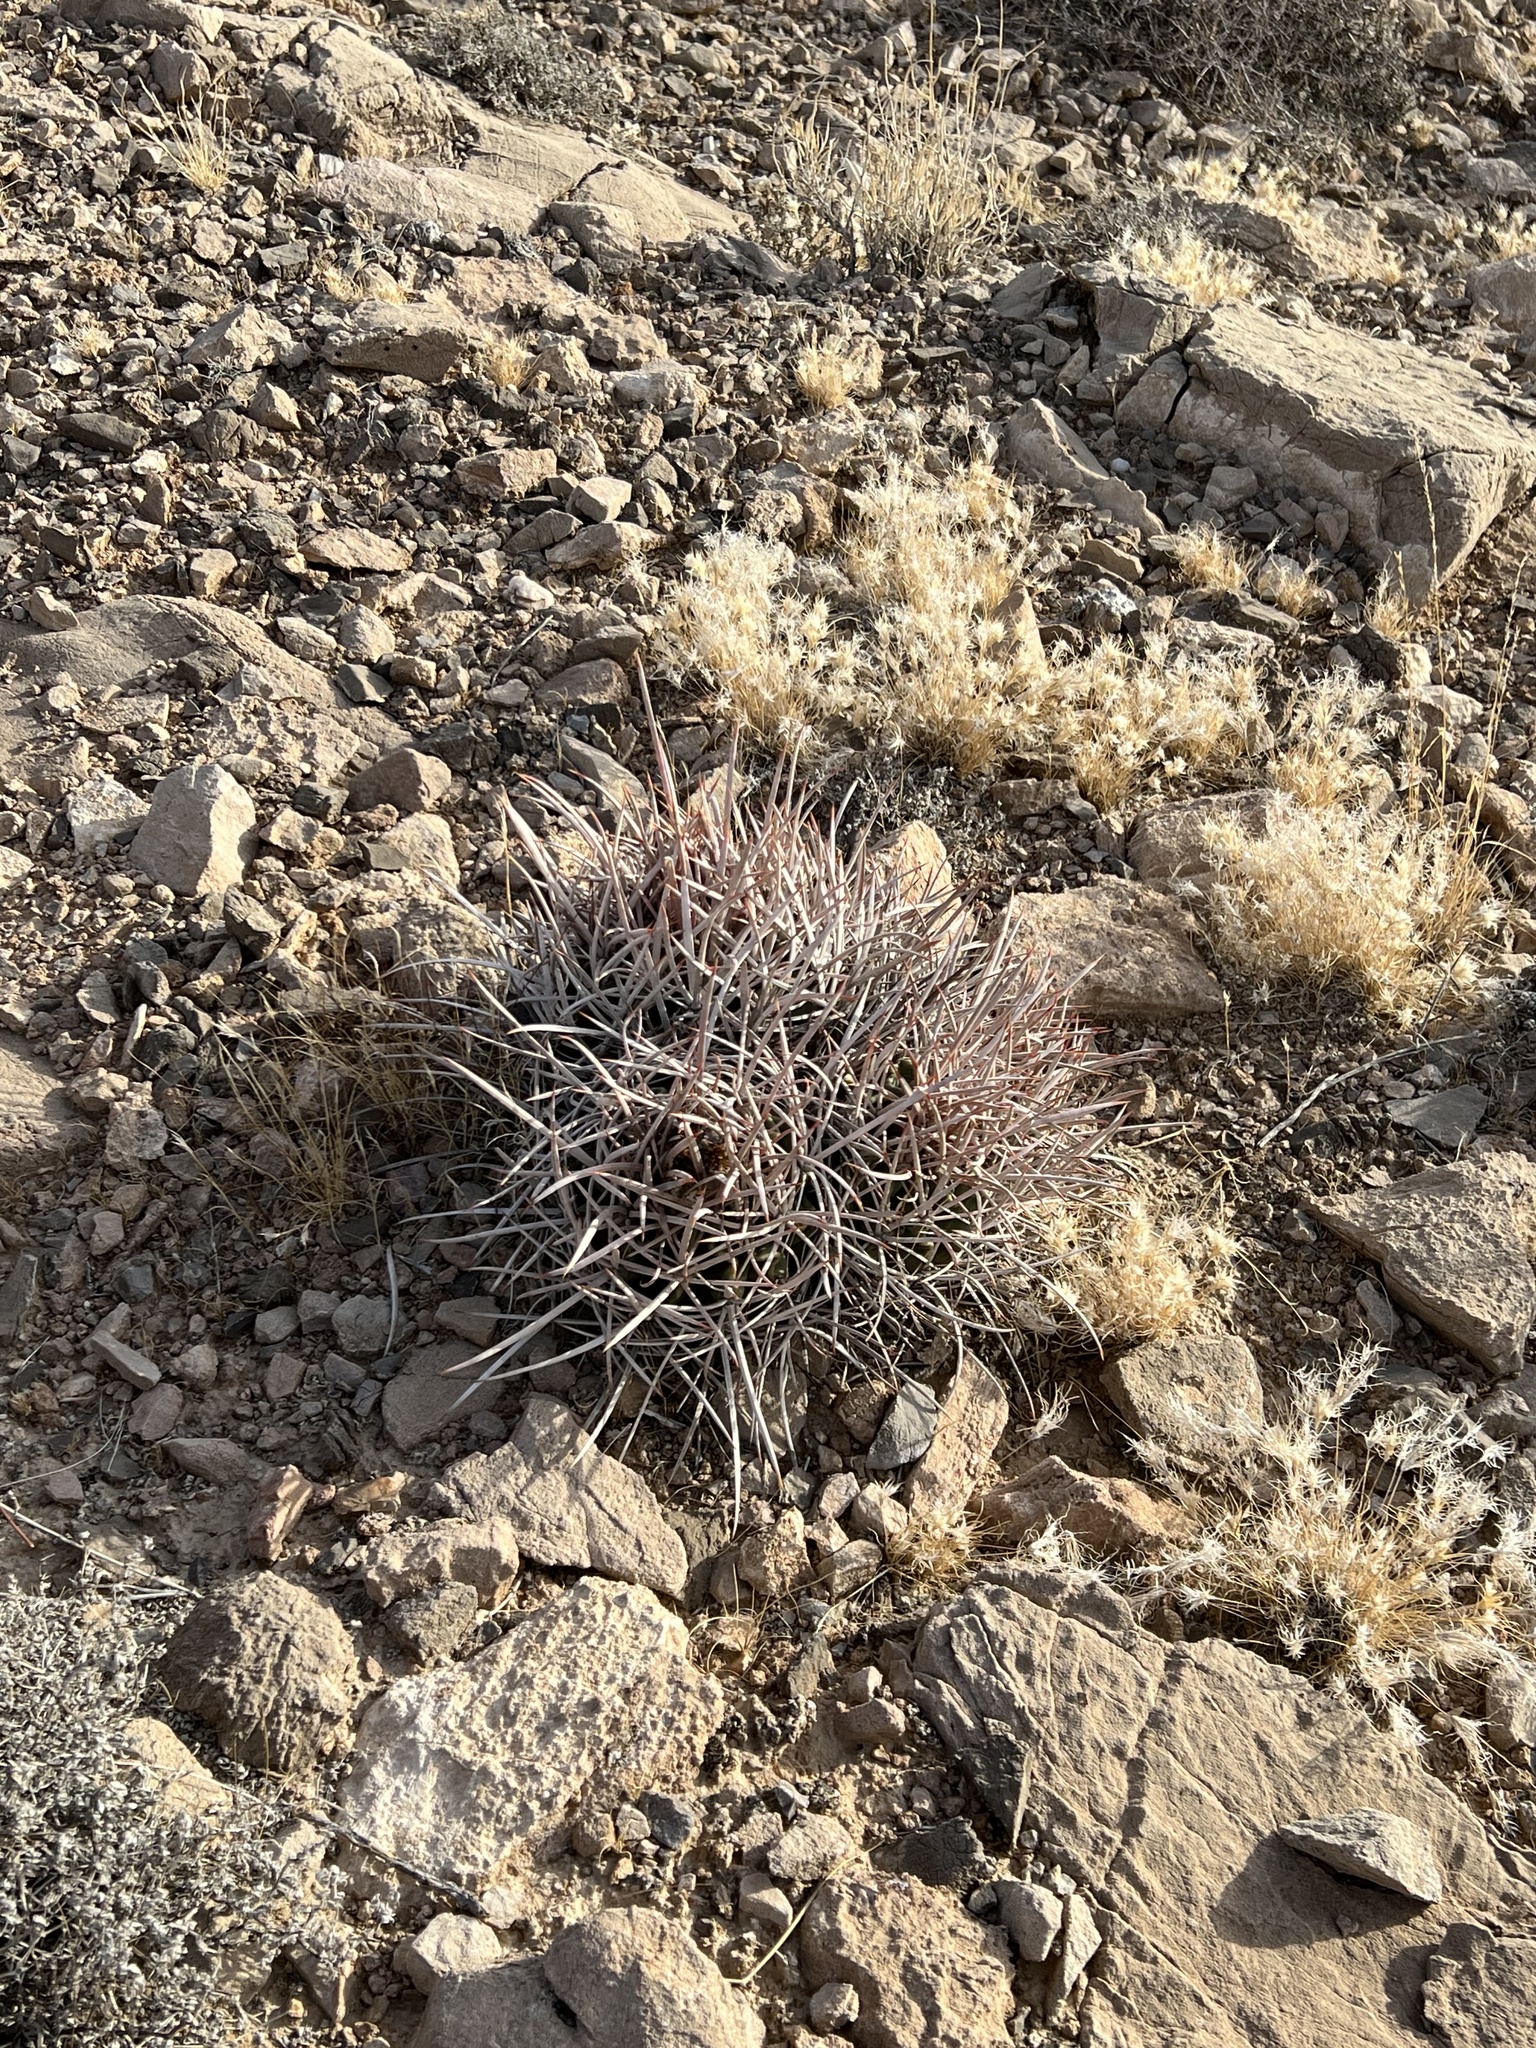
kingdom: Plantae
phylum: Tracheophyta
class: Magnoliopsida
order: Caryophyllales
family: Cactaceae
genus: Echinocactus
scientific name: Echinocactus polycephalus
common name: Cottontop cactus
